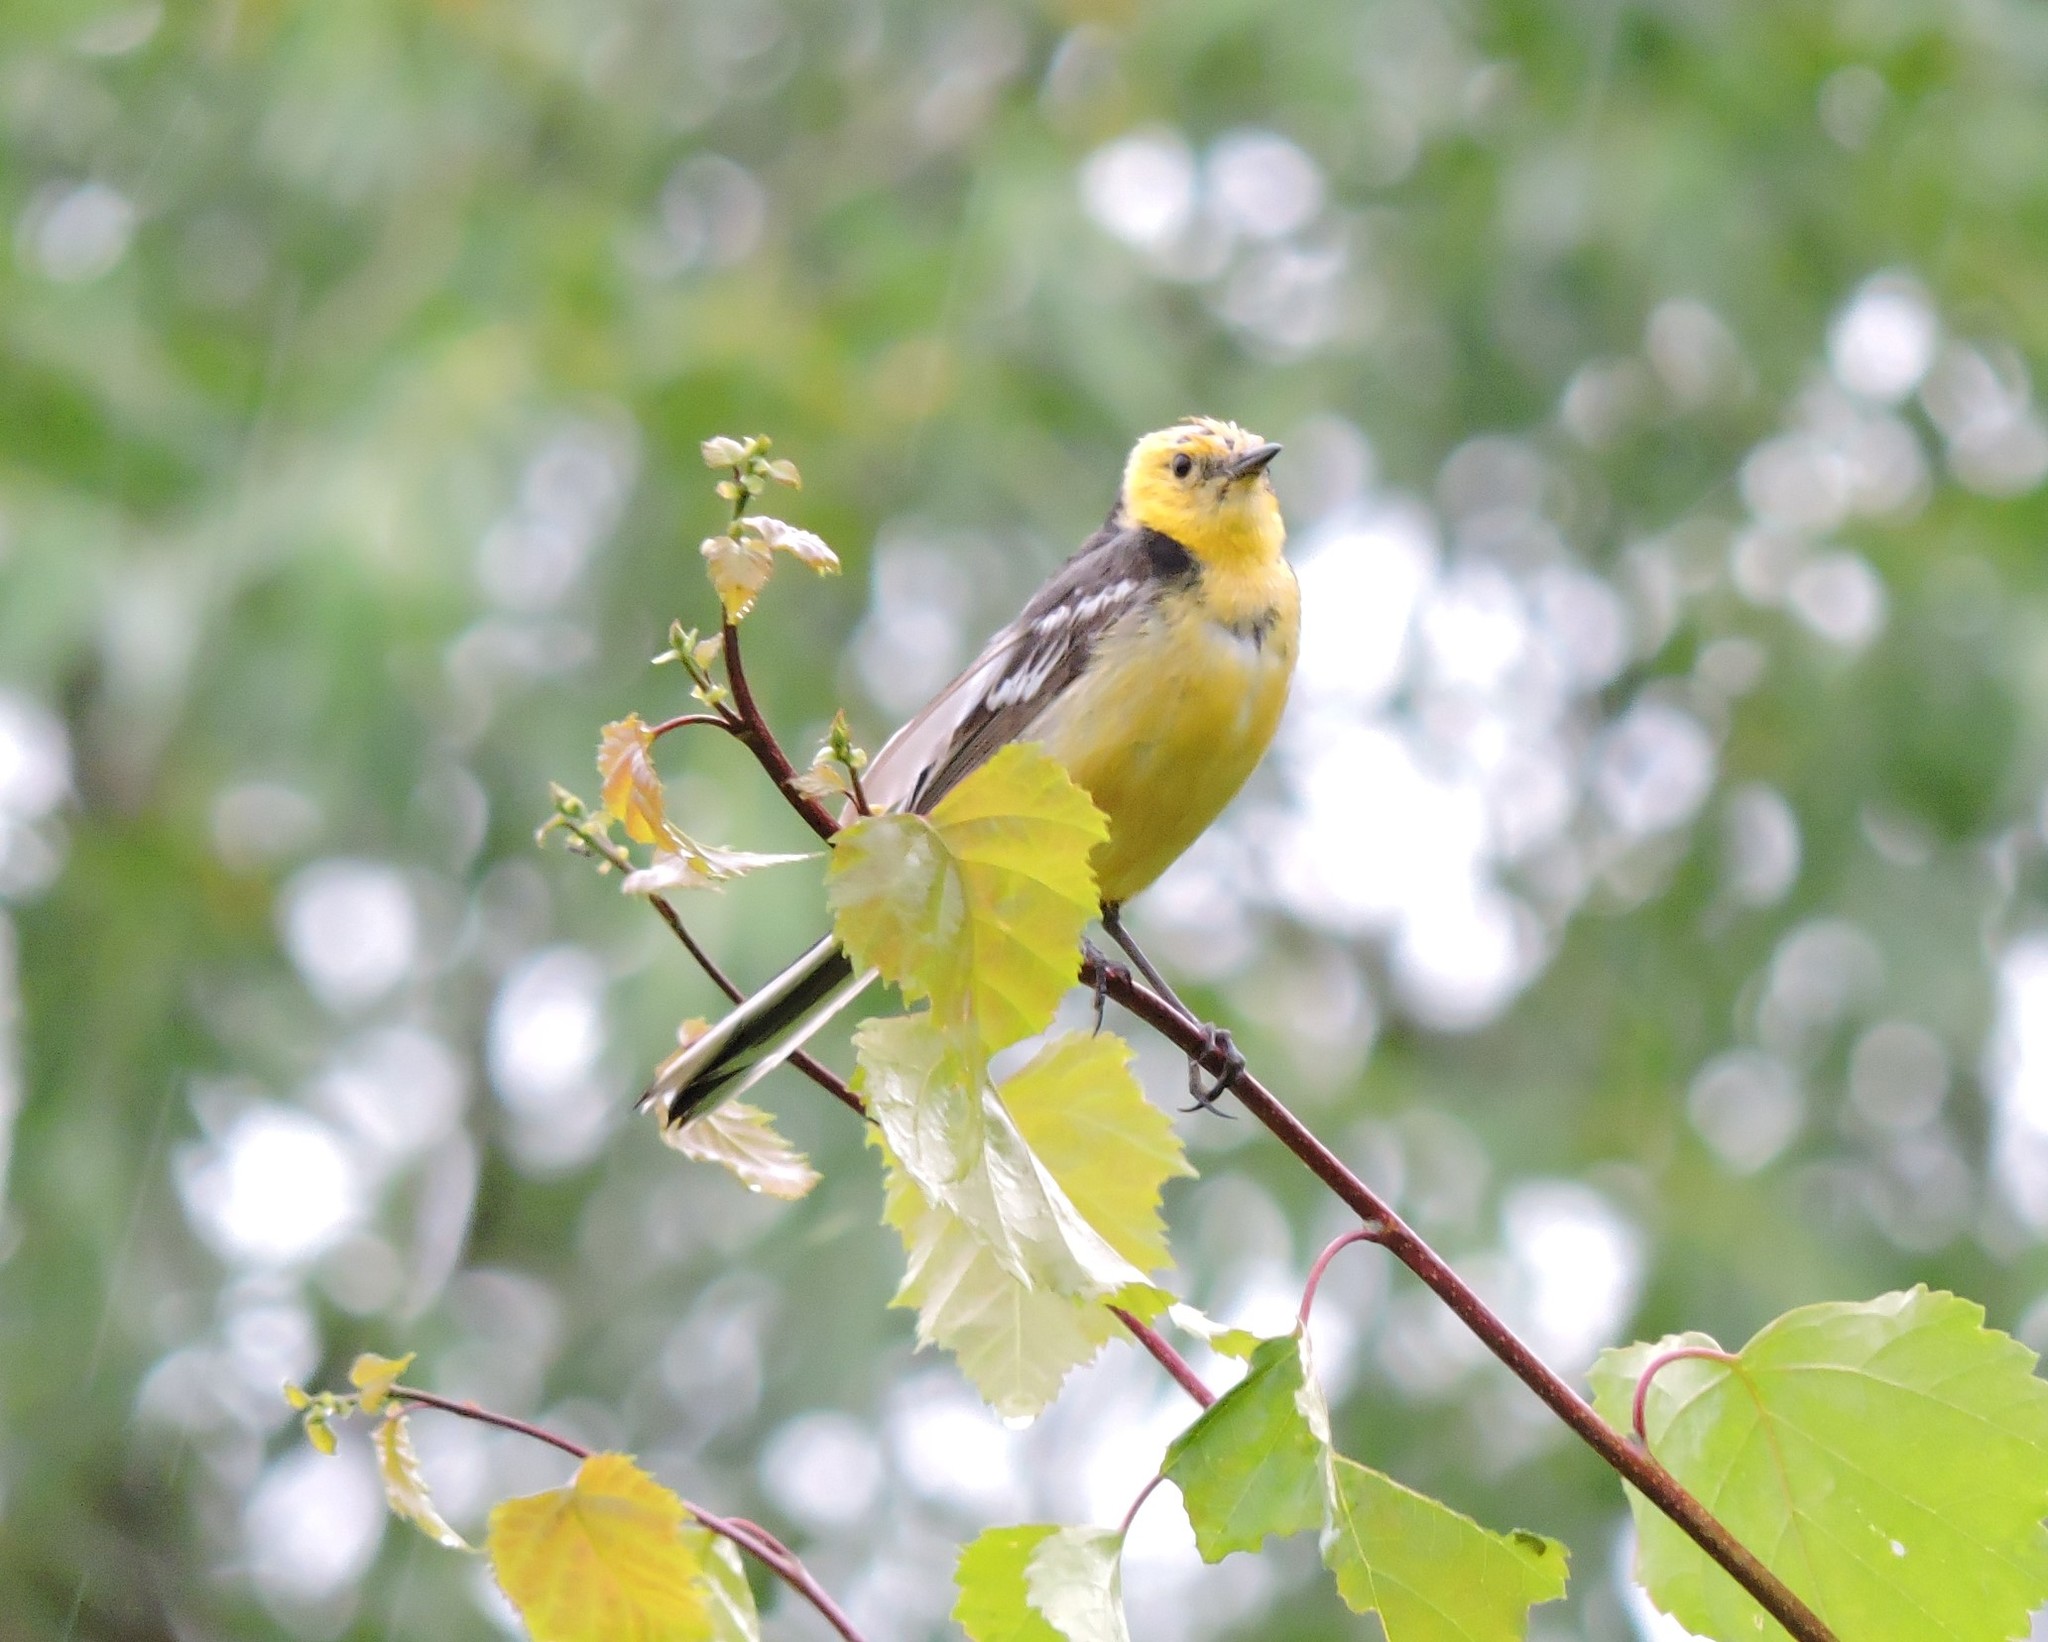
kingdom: Animalia
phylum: Chordata
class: Aves
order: Passeriformes
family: Motacillidae
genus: Motacilla
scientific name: Motacilla citreola
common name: Citrine wagtail
